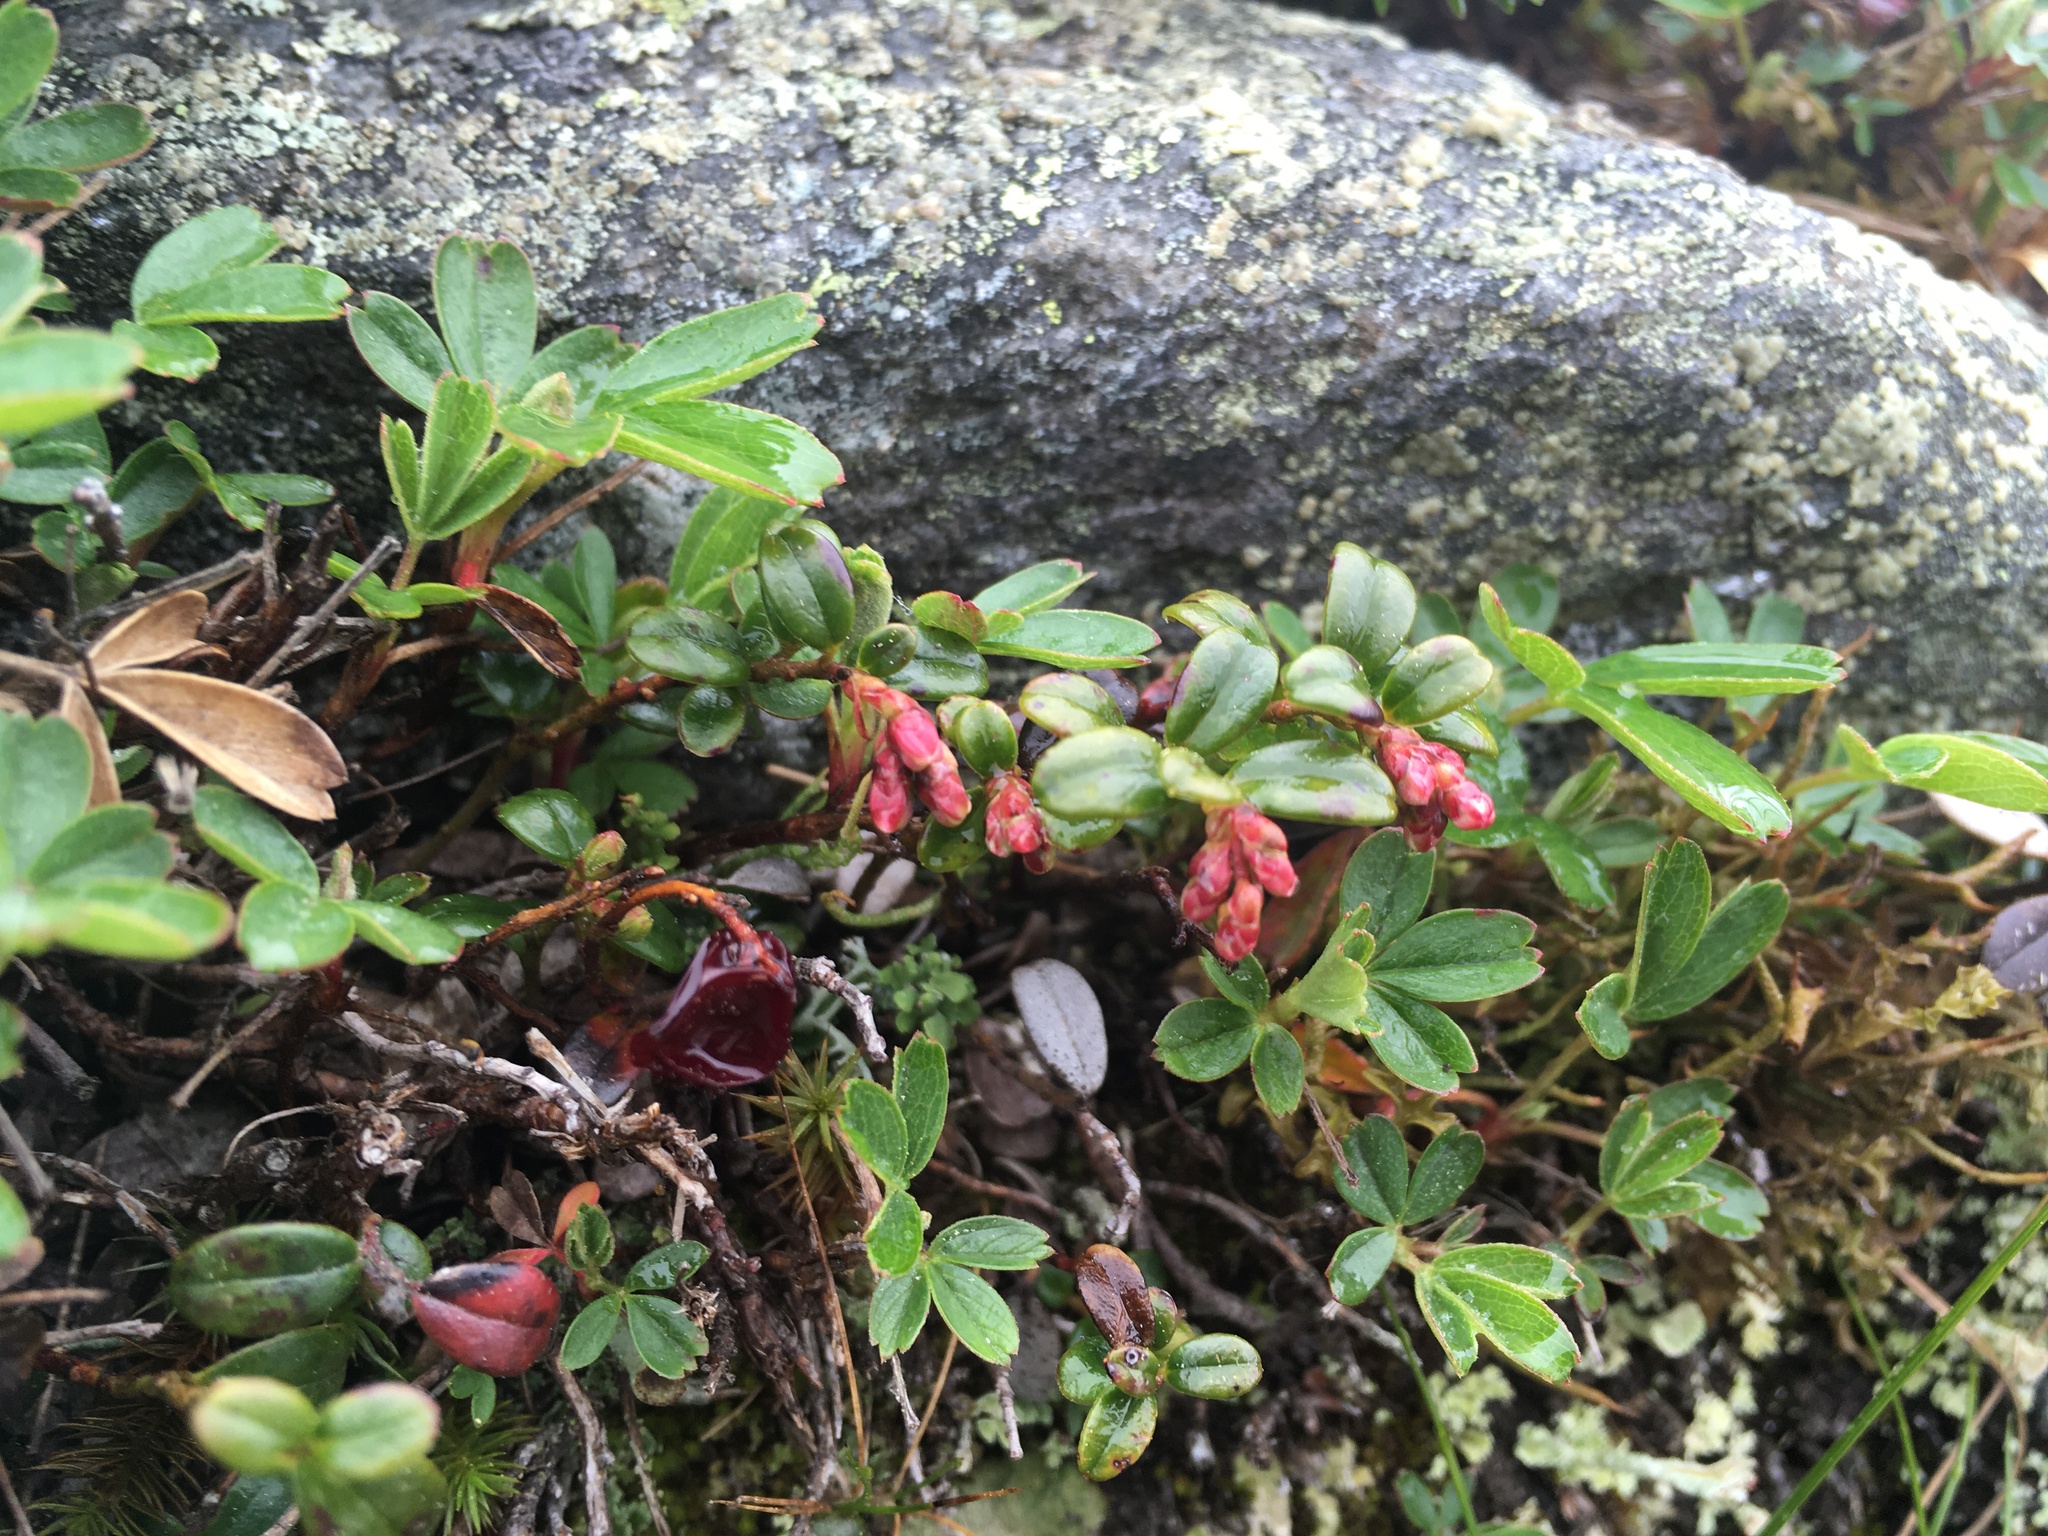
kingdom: Plantae
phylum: Tracheophyta
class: Magnoliopsida
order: Ericales
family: Ericaceae
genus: Vaccinium
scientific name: Vaccinium vitis-idaea
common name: Cowberry
